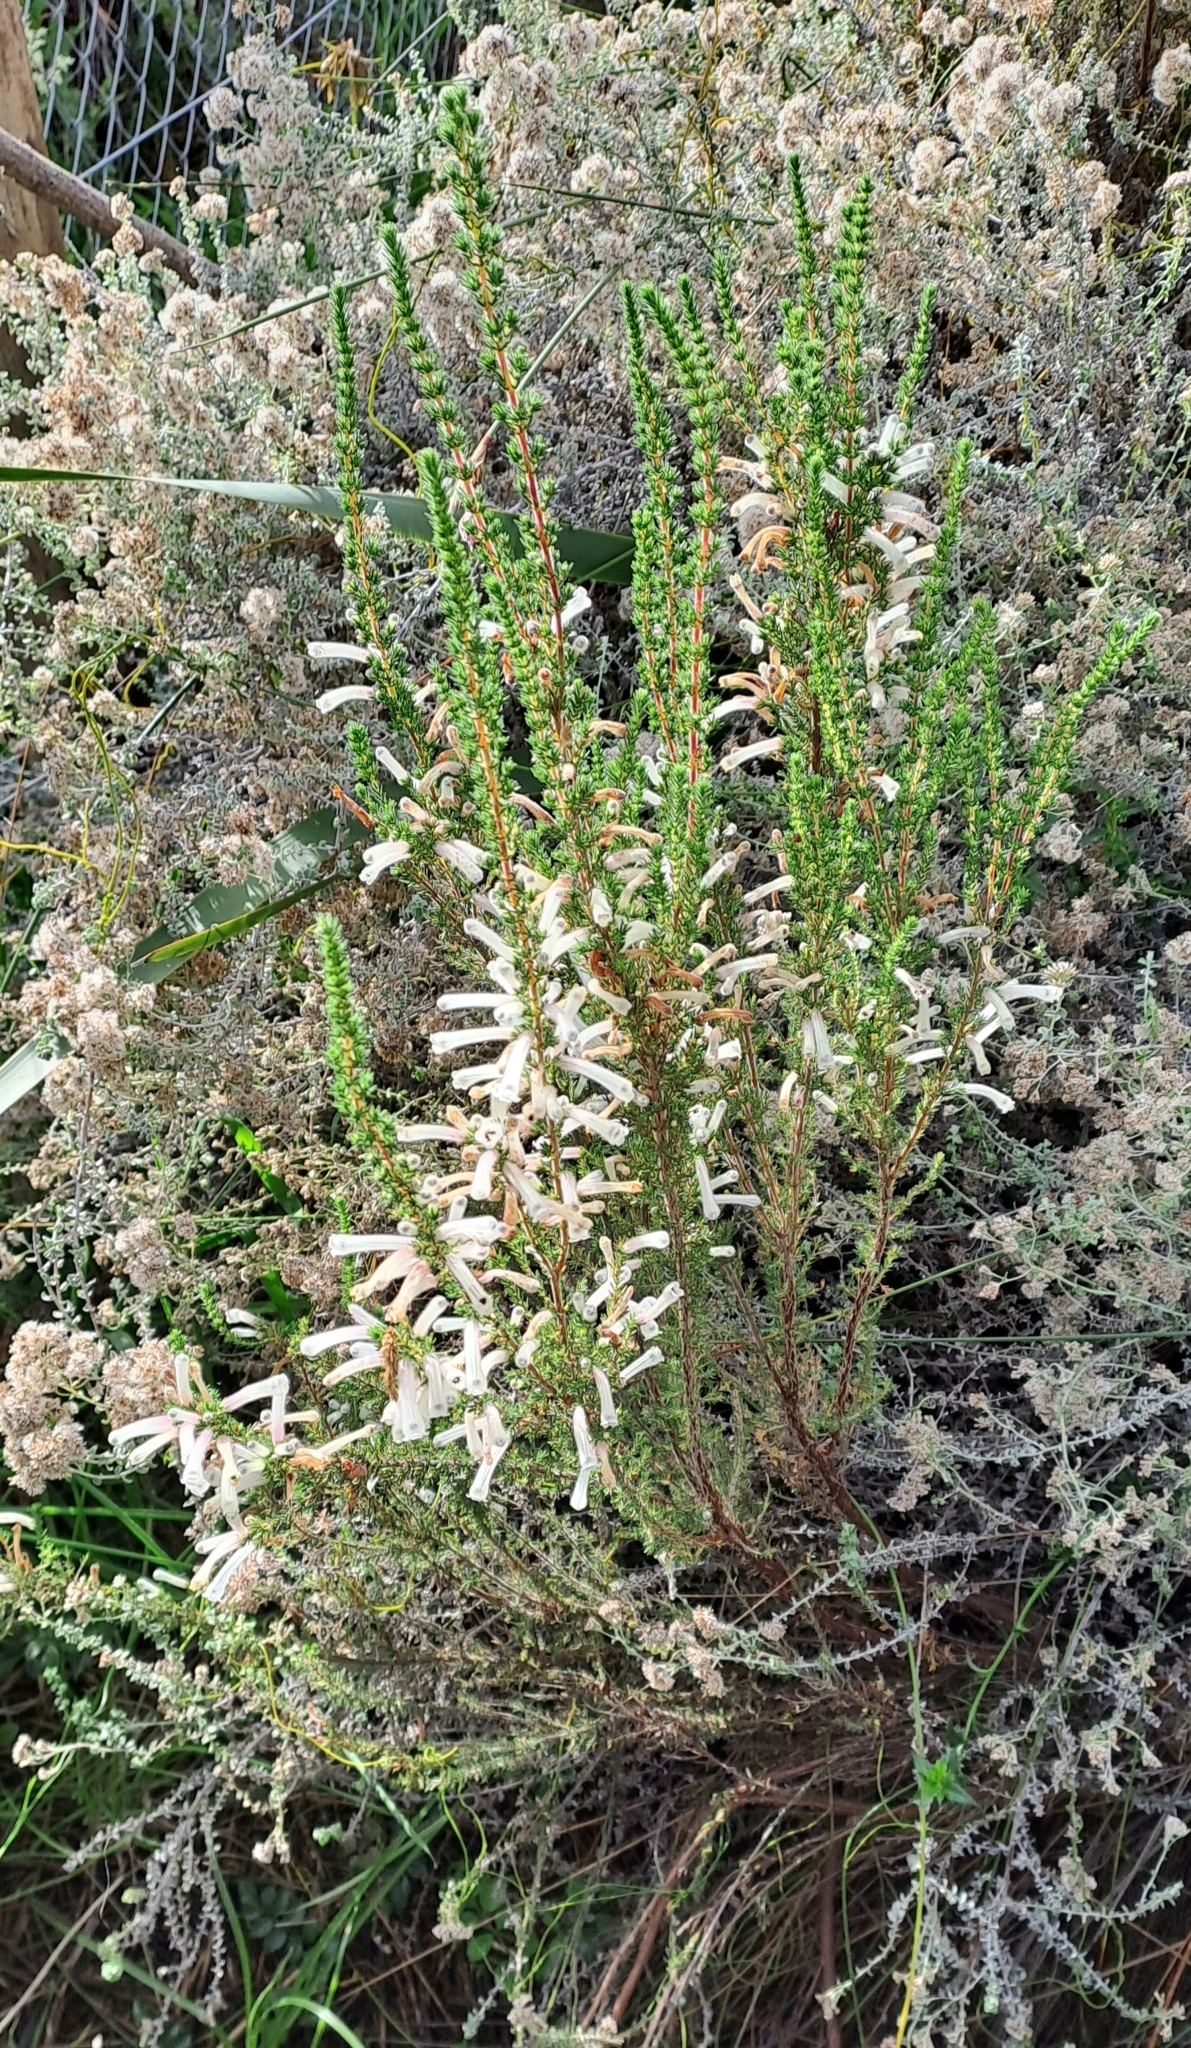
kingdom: Plantae
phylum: Tracheophyta
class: Magnoliopsida
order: Ericales
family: Ericaceae
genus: Erica
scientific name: Erica perspicua
